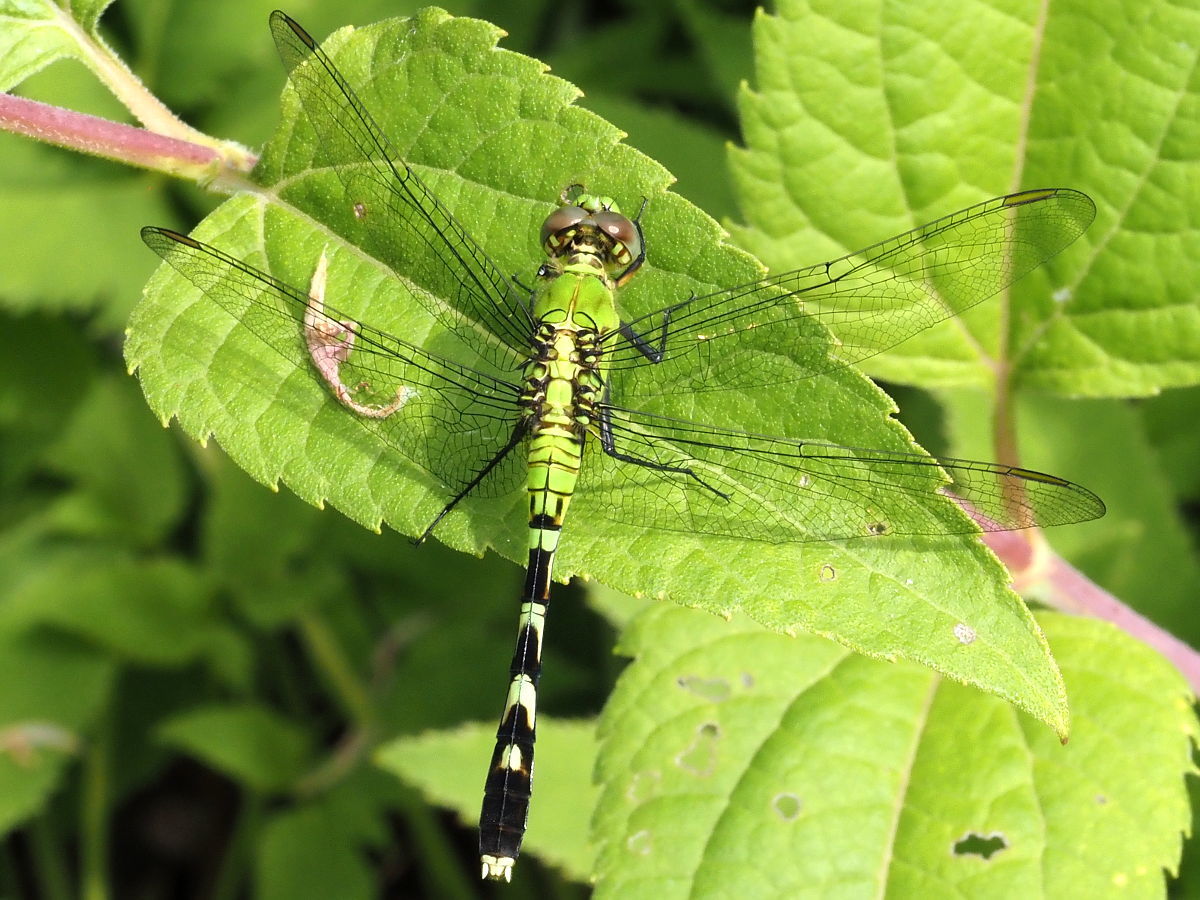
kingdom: Animalia
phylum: Arthropoda
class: Insecta
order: Odonata
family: Libellulidae
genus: Erythemis
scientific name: Erythemis simplicicollis
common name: Eastern pondhawk
